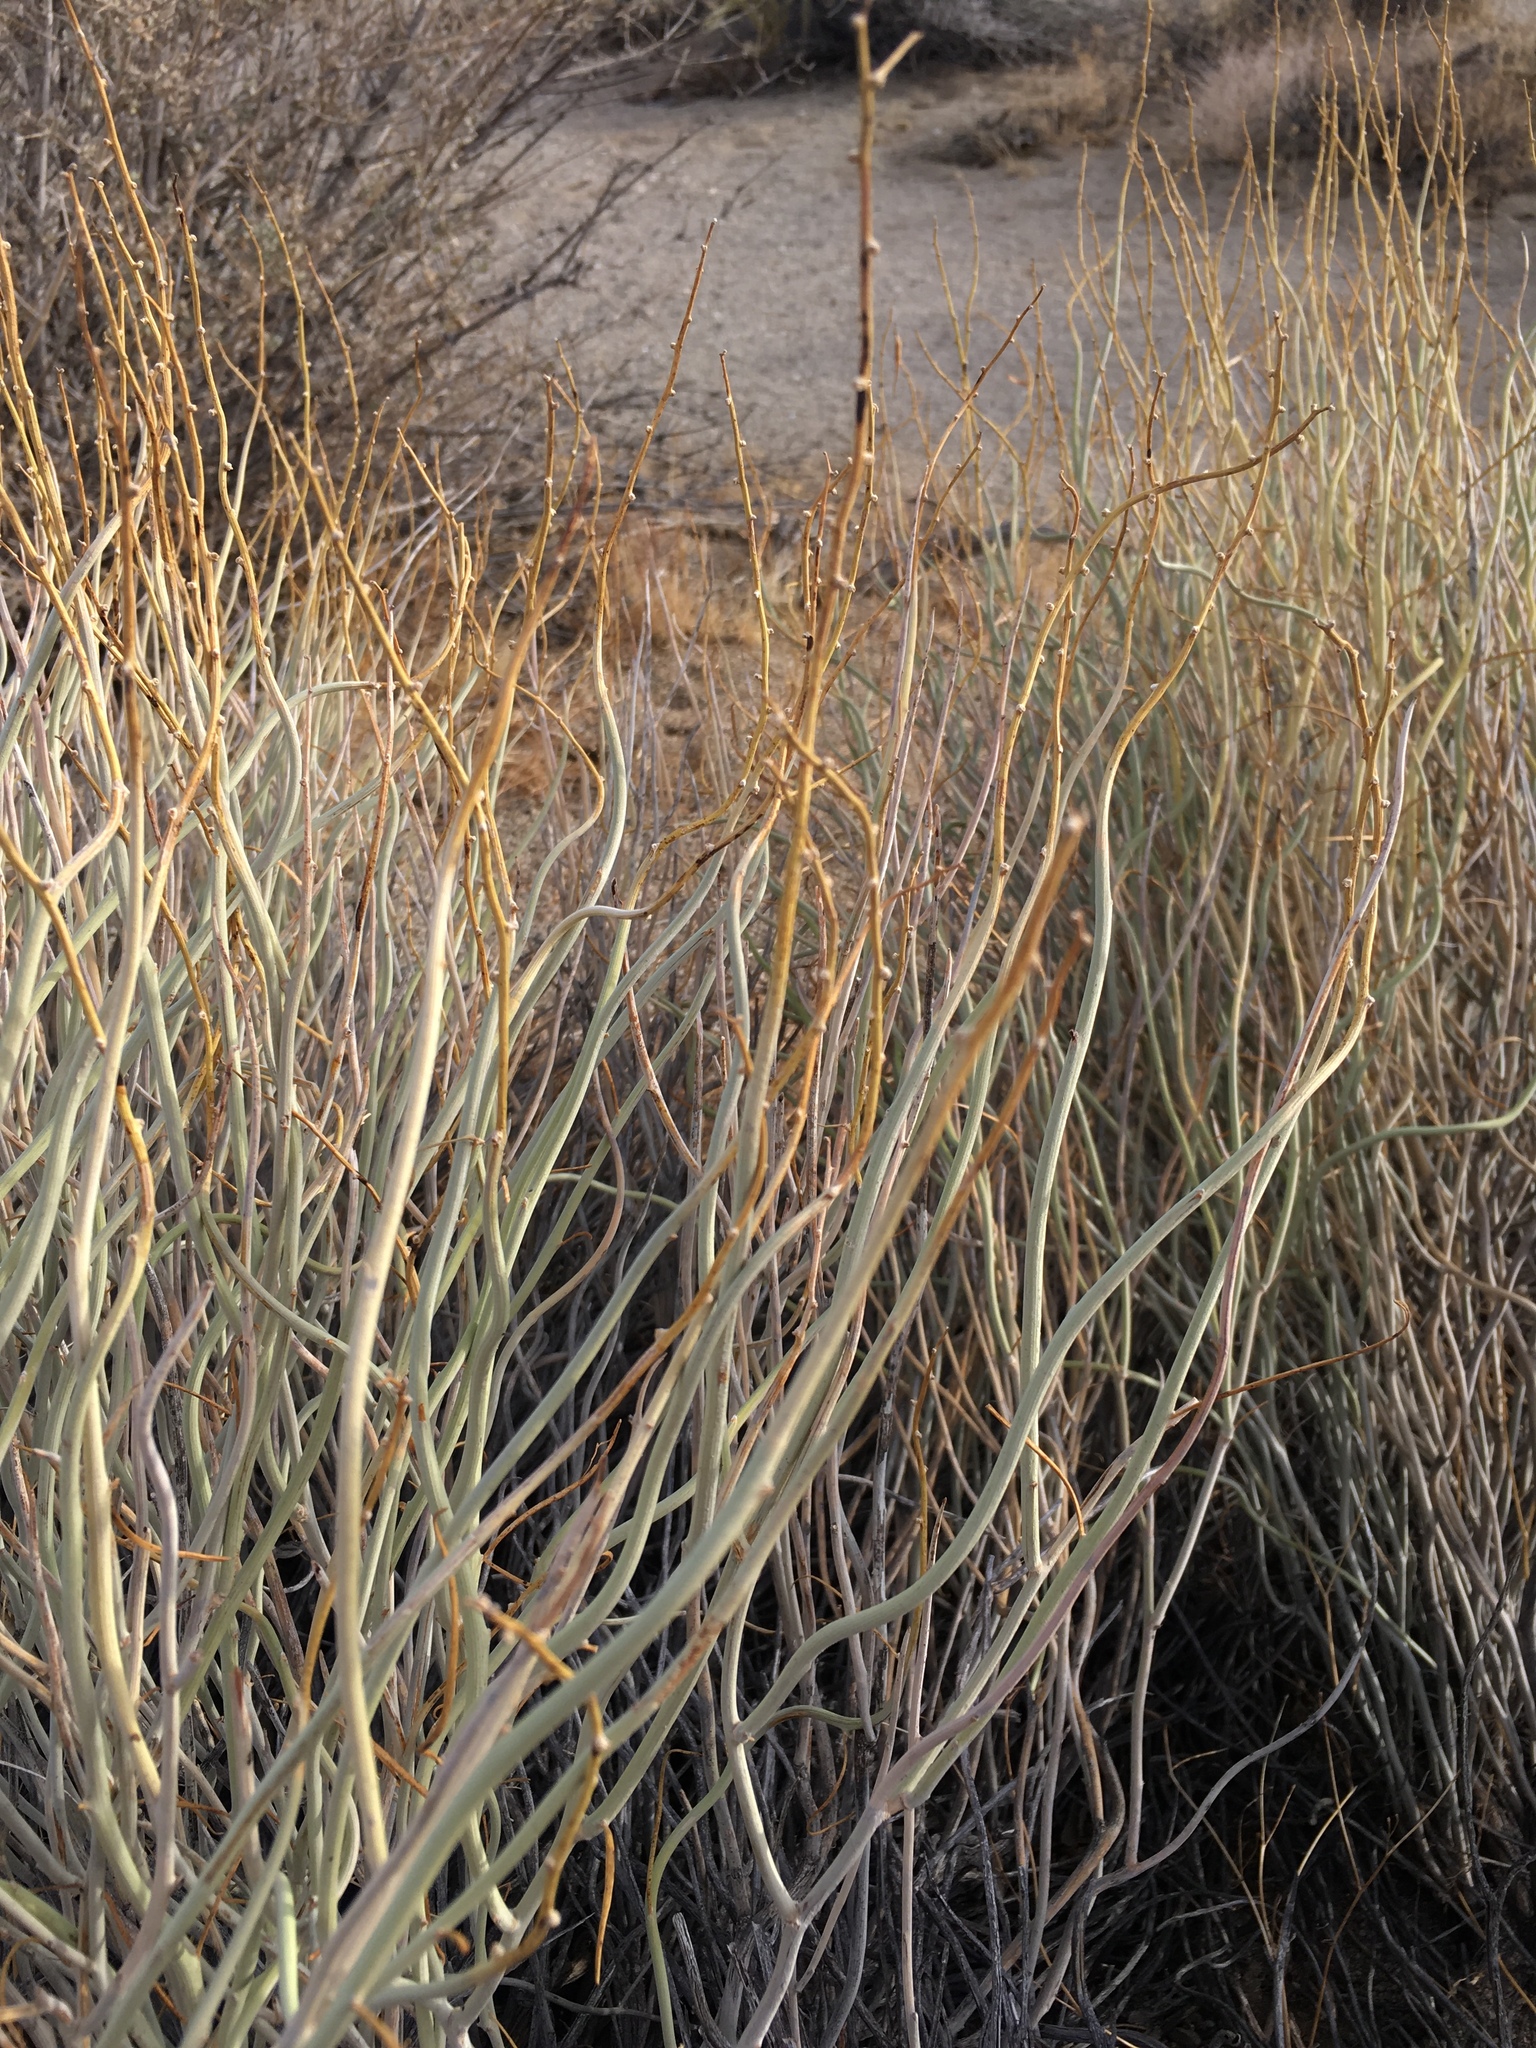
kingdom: Plantae
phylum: Tracheophyta
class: Magnoliopsida
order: Fabales
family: Fabaceae
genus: Senna
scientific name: Senna armata
